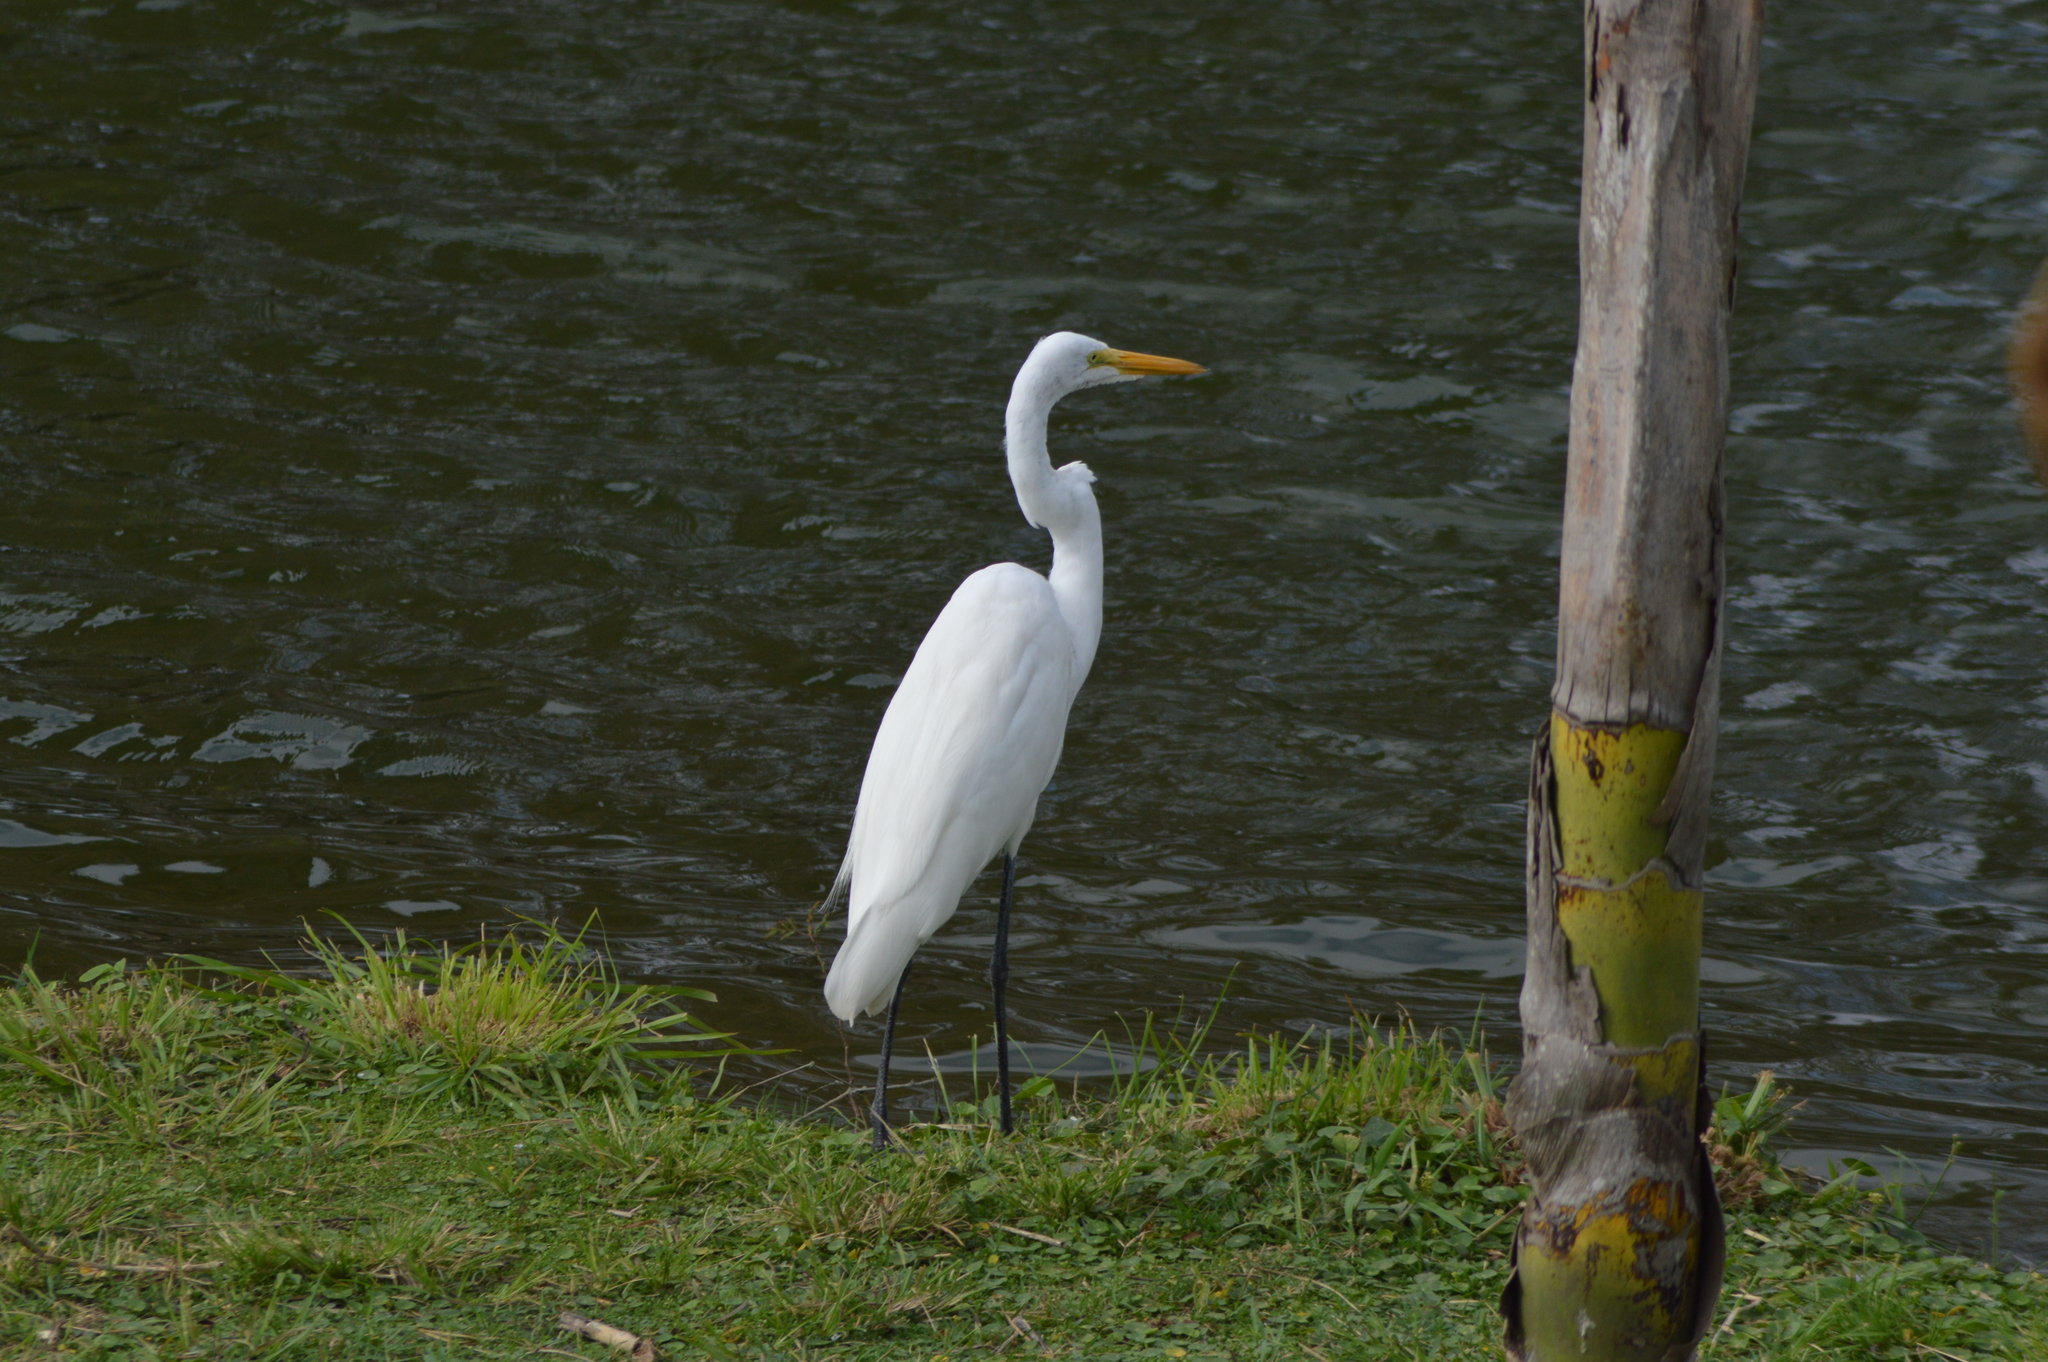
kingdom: Animalia
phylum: Chordata
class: Aves
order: Pelecaniformes
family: Ardeidae
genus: Ardea
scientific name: Ardea alba
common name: Great egret
